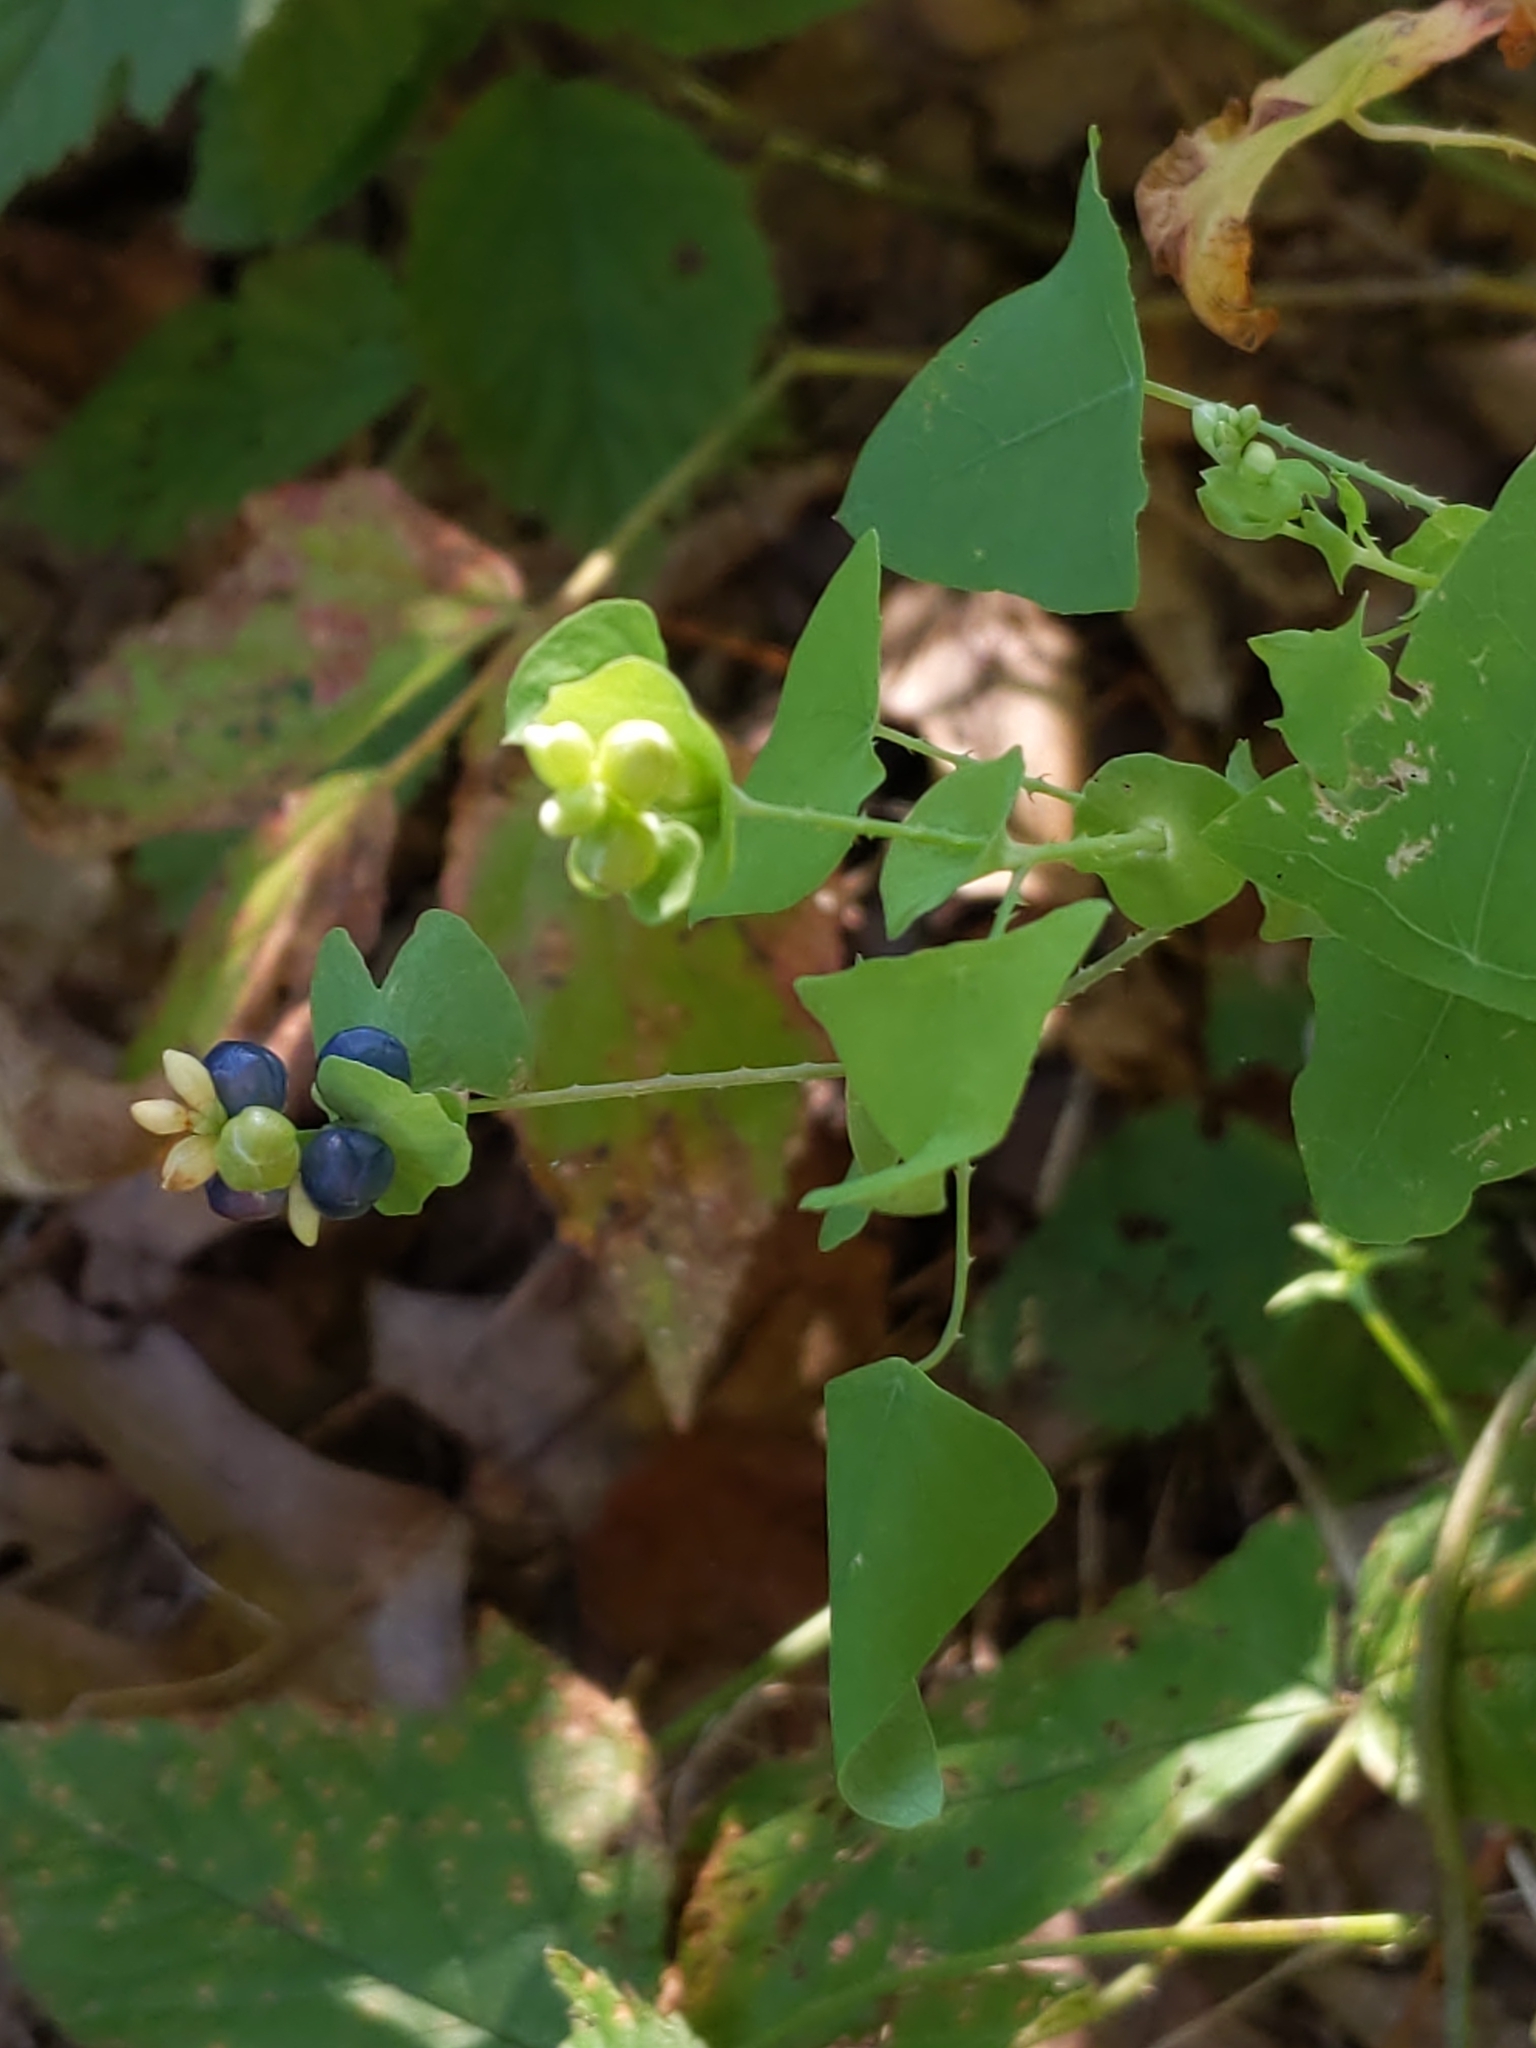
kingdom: Plantae
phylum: Tracheophyta
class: Magnoliopsida
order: Caryophyllales
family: Polygonaceae
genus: Persicaria
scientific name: Persicaria perfoliata
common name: Asiatic tearthumb
